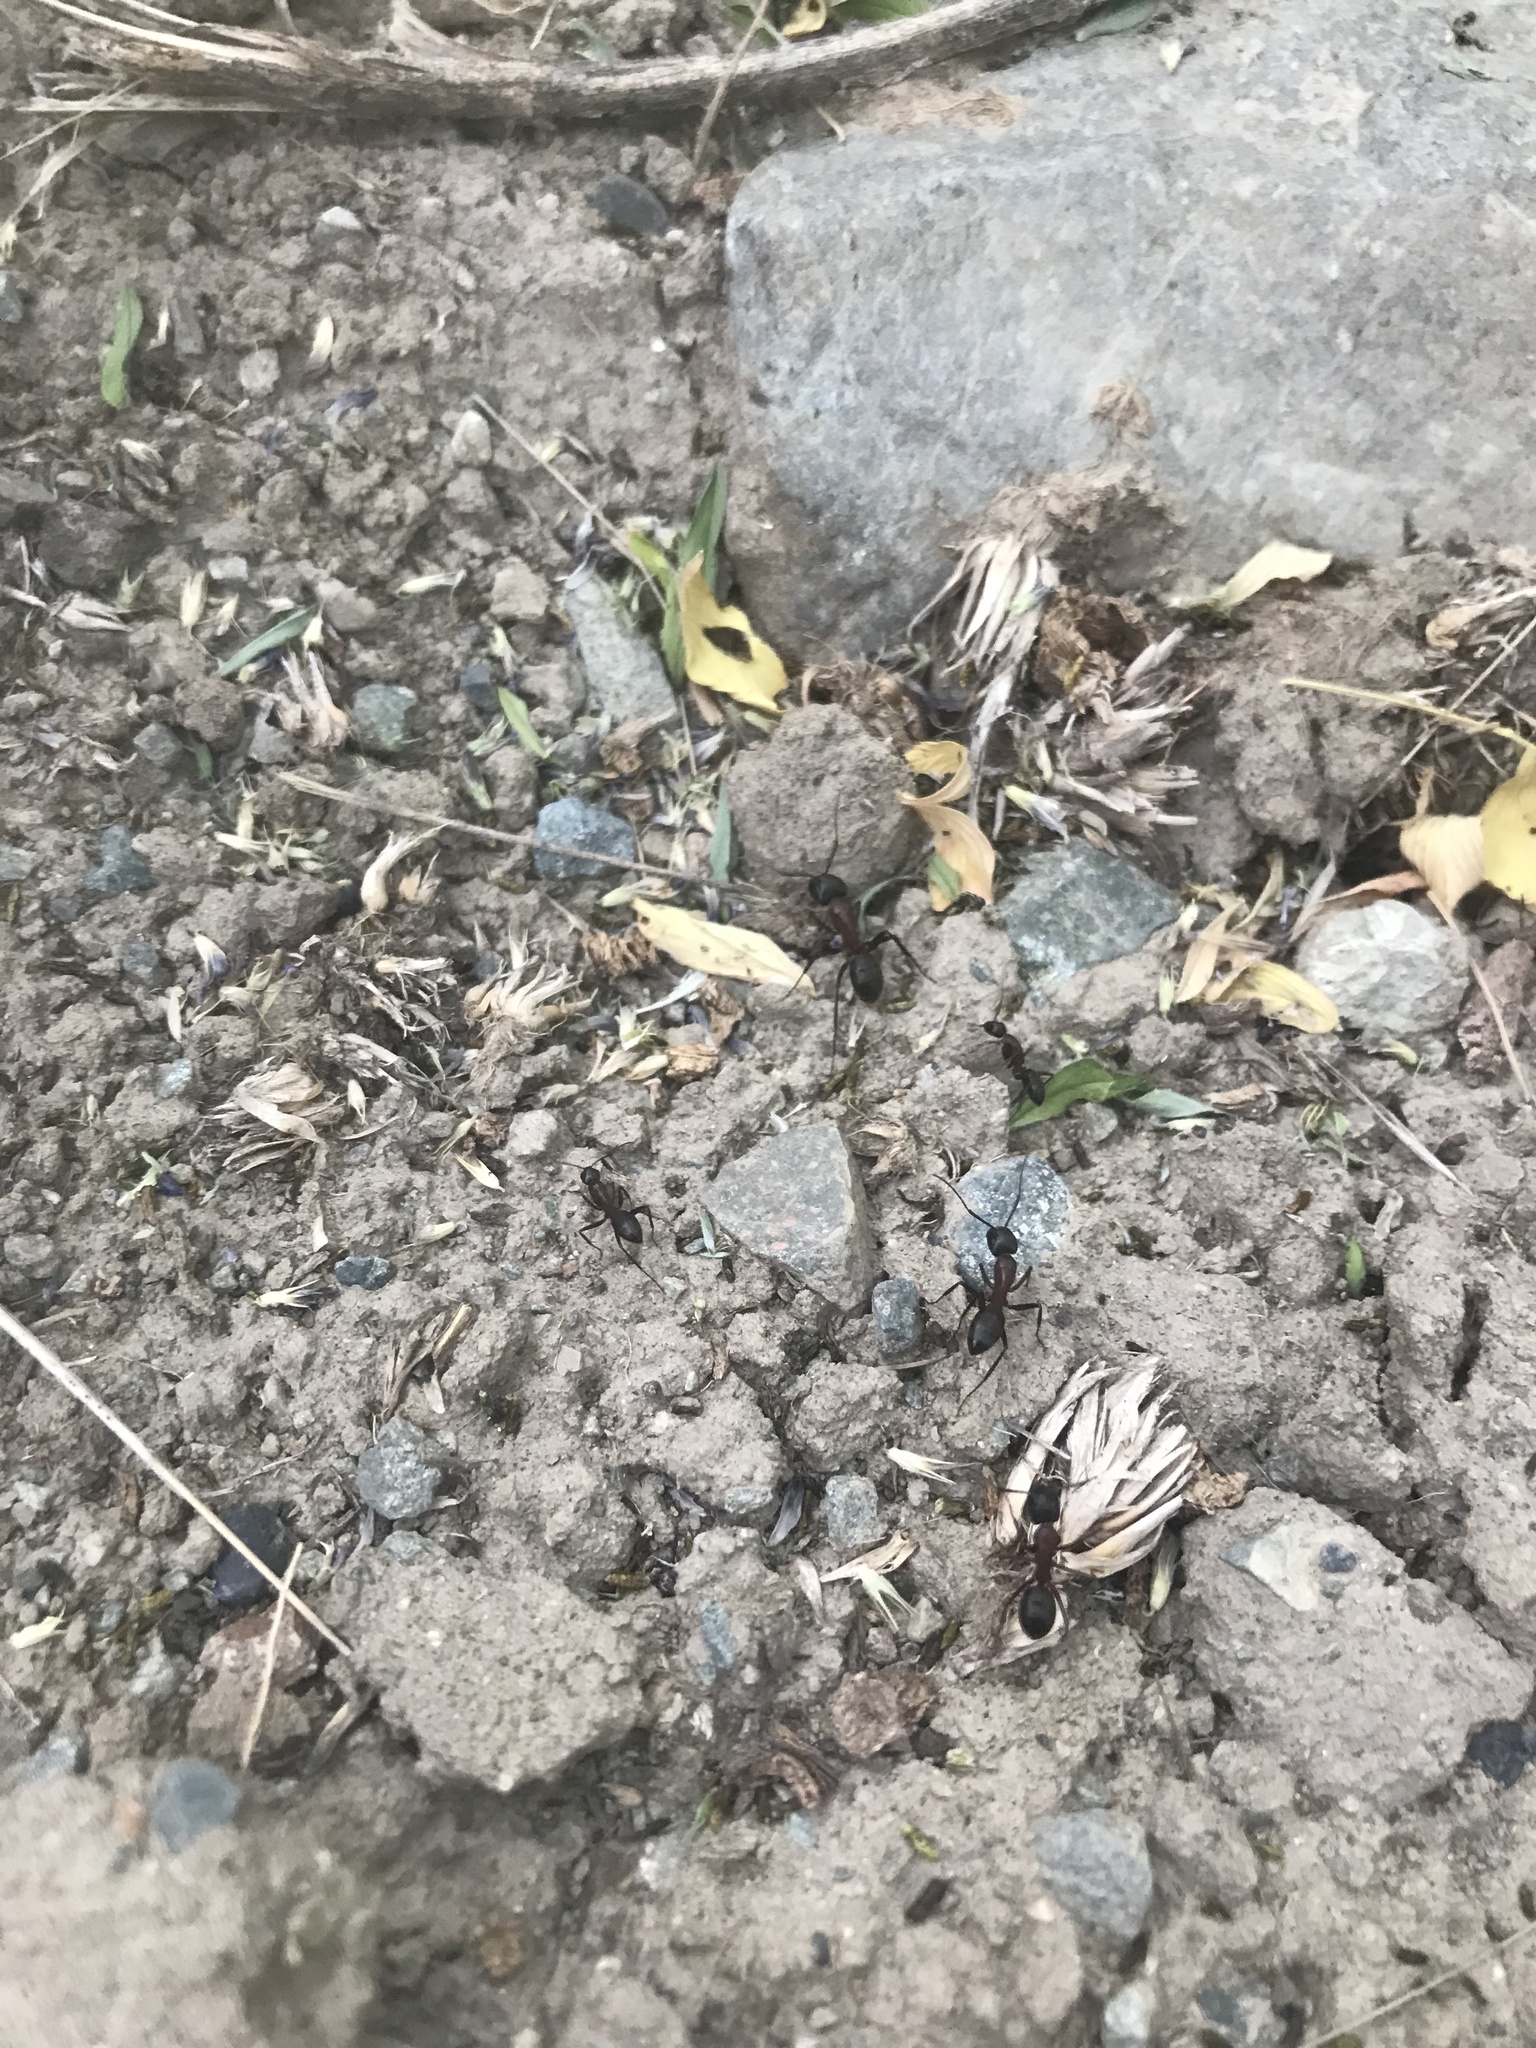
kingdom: Animalia
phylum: Arthropoda
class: Insecta
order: Hymenoptera
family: Formicidae
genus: Camponotus
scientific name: Camponotus vicinus
